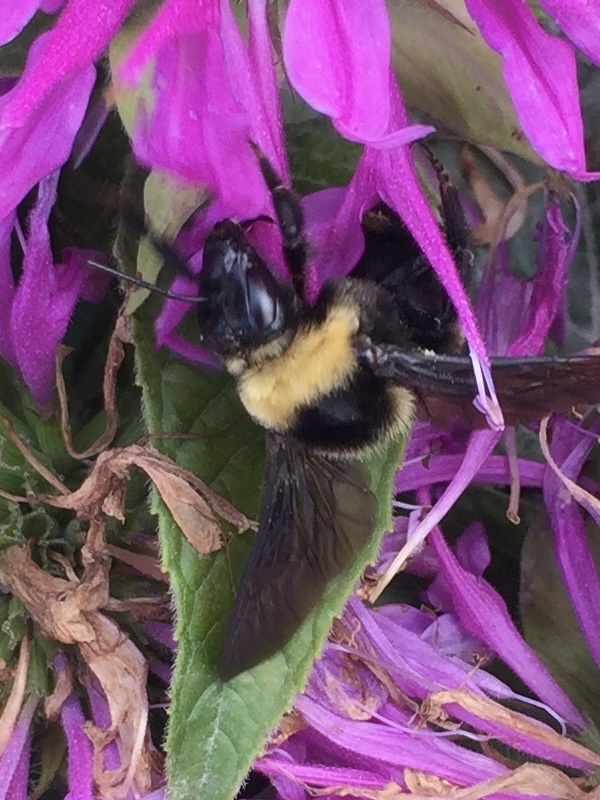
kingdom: Animalia
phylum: Arthropoda
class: Insecta
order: Hymenoptera
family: Apidae
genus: Bombus
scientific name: Bombus auricomus
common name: Black and gold bumble bee
